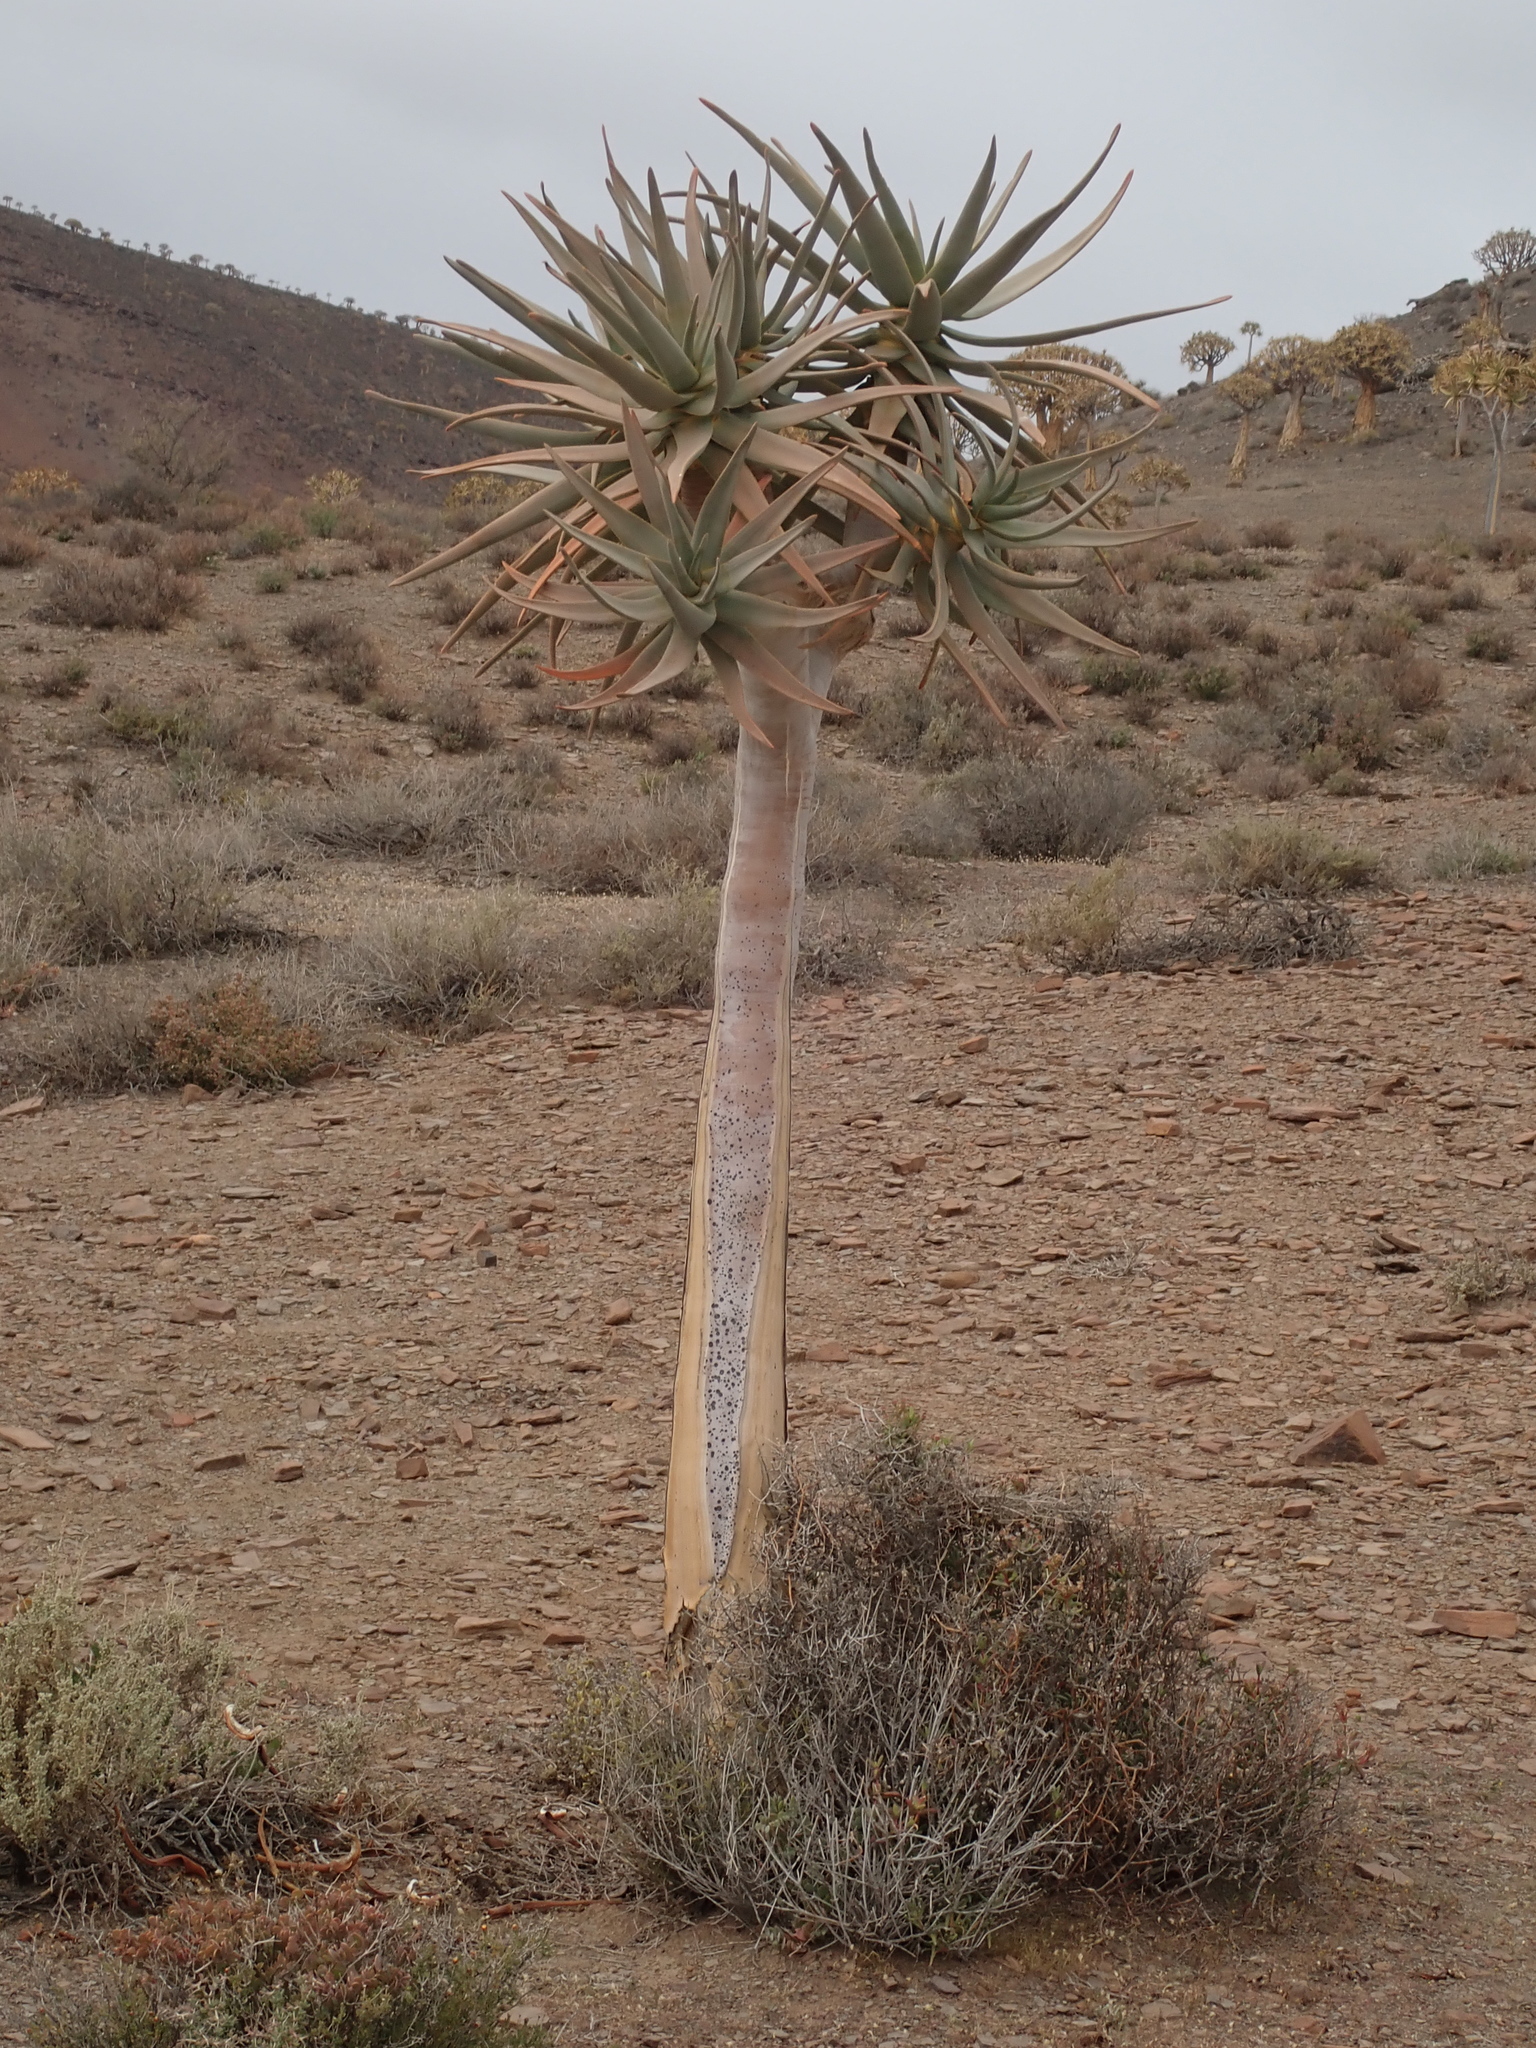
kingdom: Plantae
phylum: Tracheophyta
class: Liliopsida
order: Asparagales
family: Asphodelaceae
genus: Aloidendron
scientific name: Aloidendron dichotomum
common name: Quiver tree
